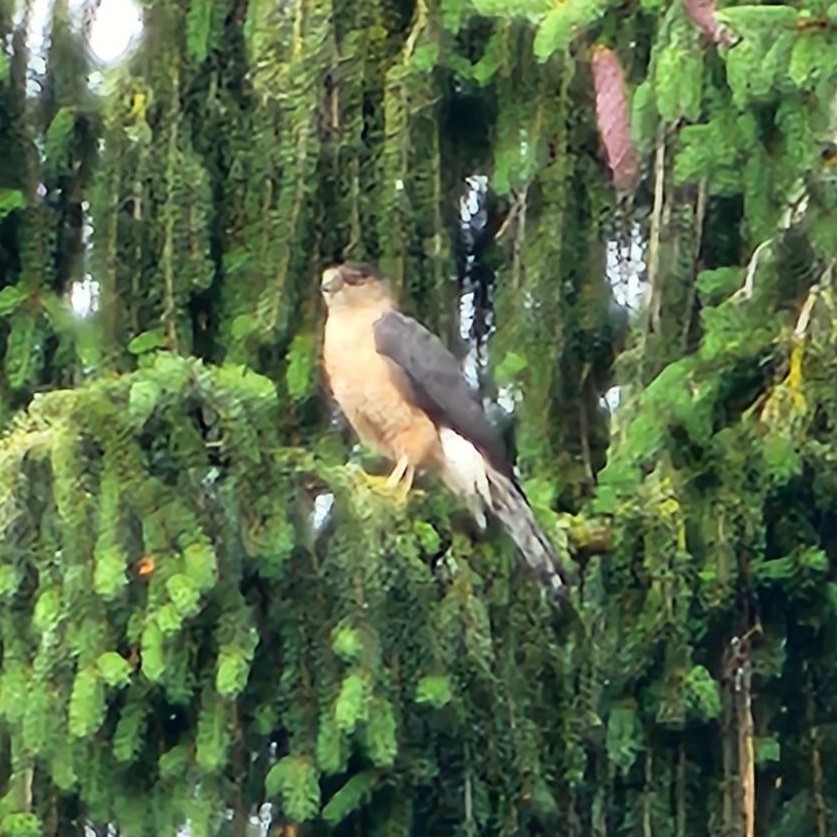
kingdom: Animalia
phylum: Chordata
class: Aves
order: Accipitriformes
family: Accipitridae
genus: Accipiter
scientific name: Accipiter cooperii
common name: Cooper's hawk
